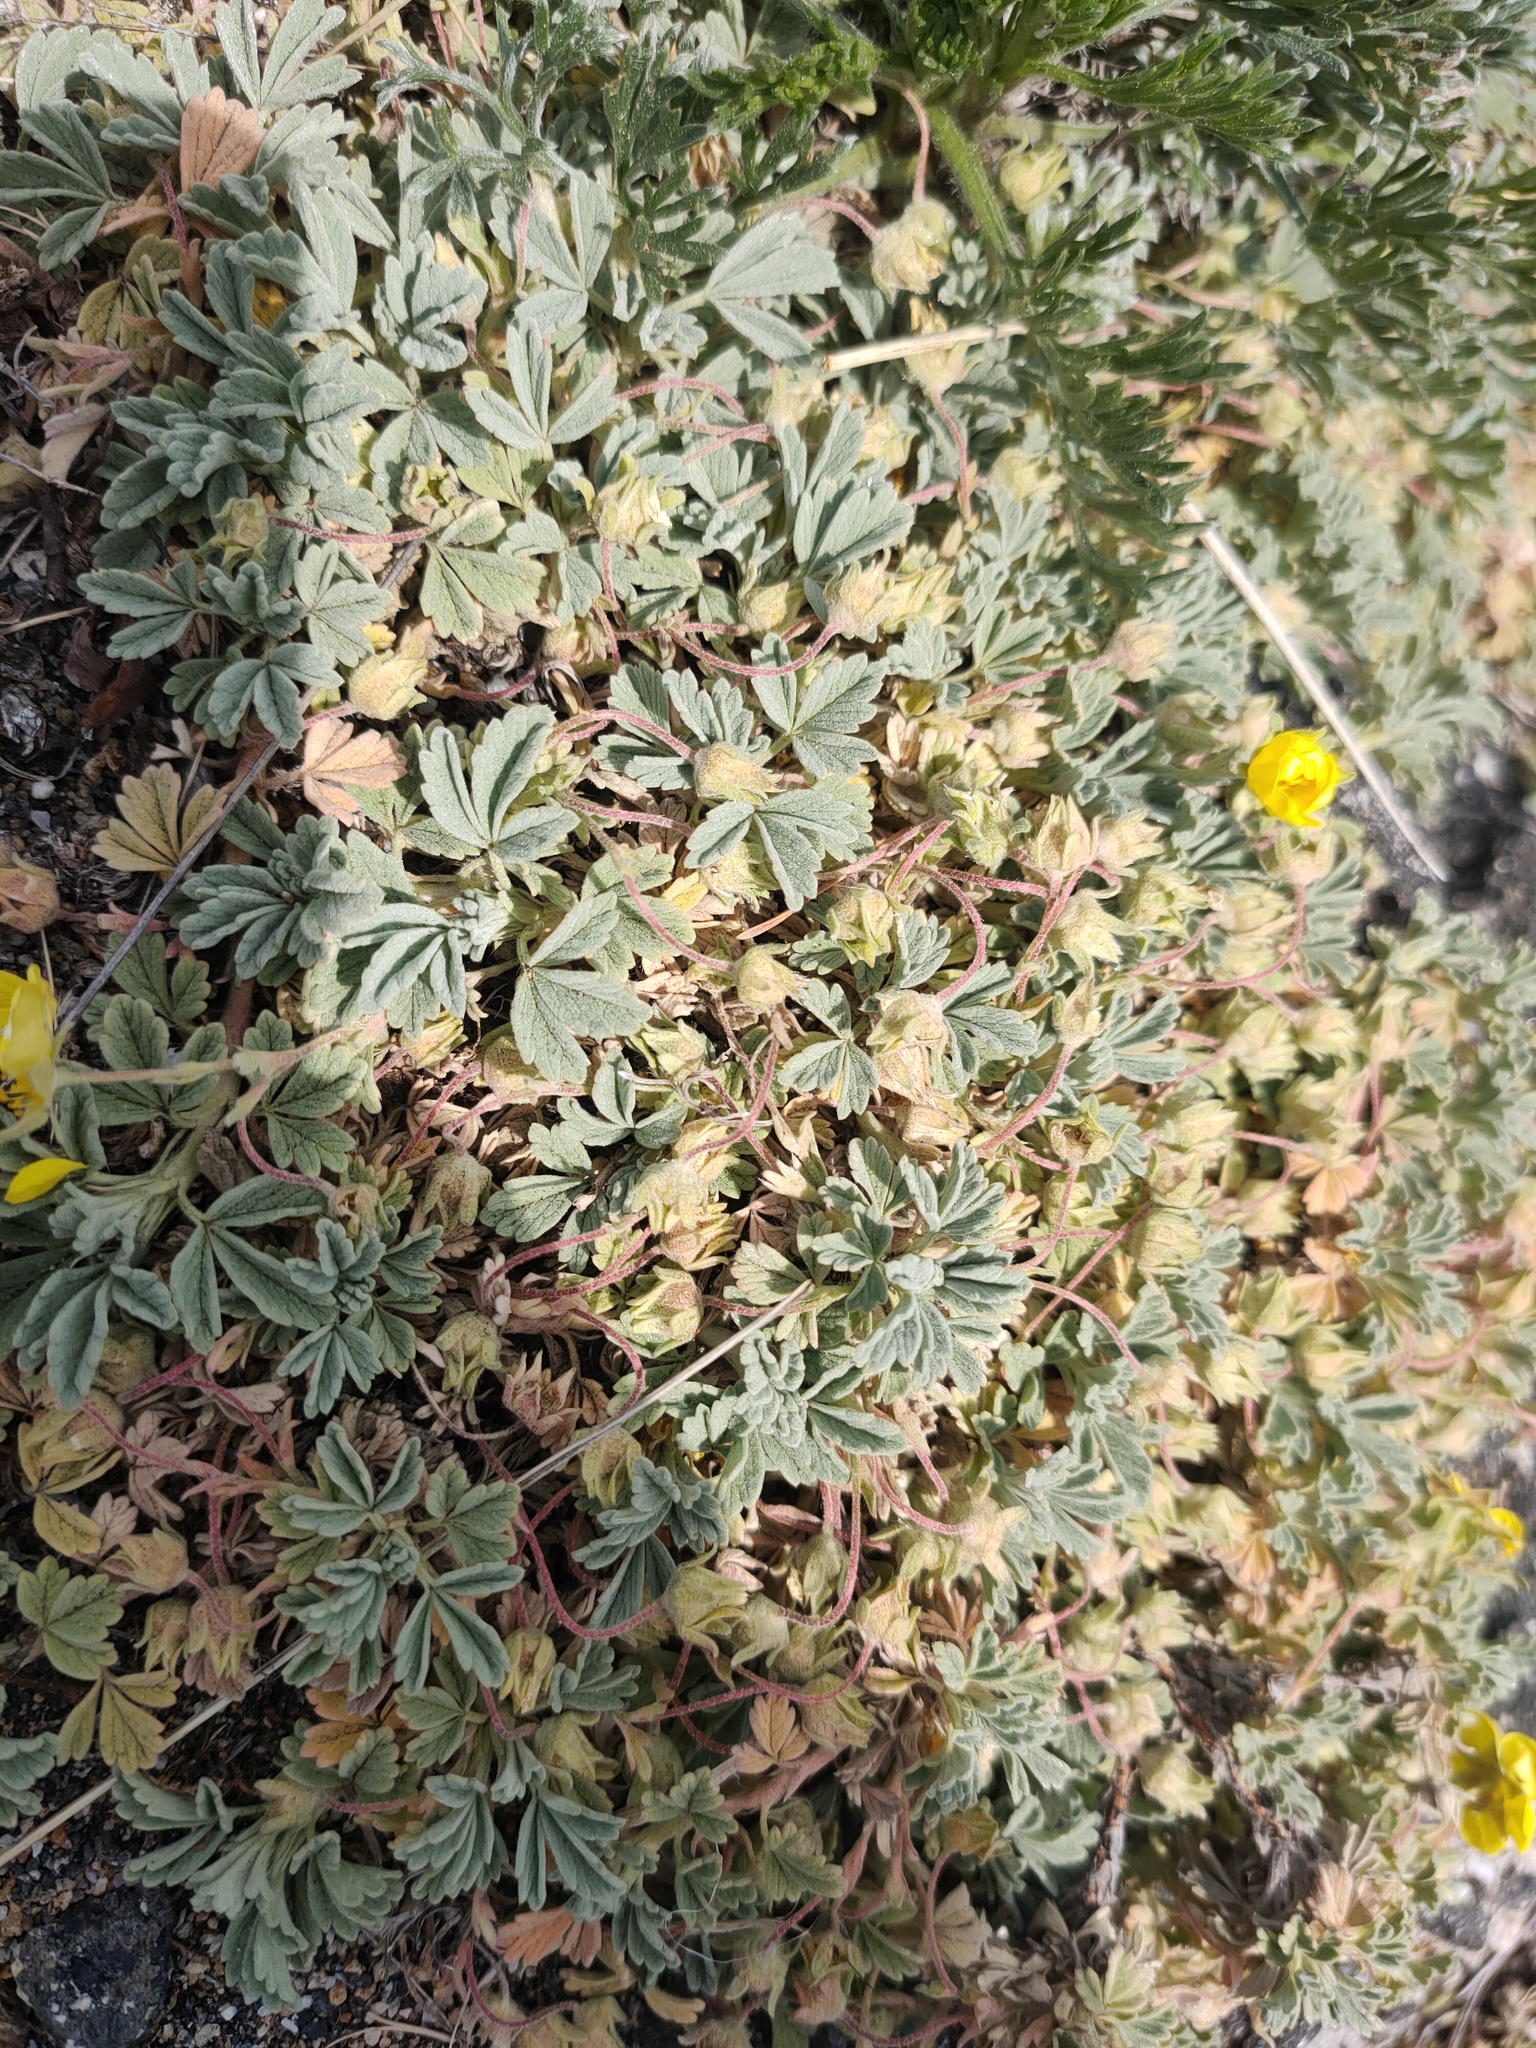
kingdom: Plantae
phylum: Tracheophyta
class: Magnoliopsida
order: Rosales
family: Rosaceae
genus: Potentilla
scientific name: Potentilla acaulis
